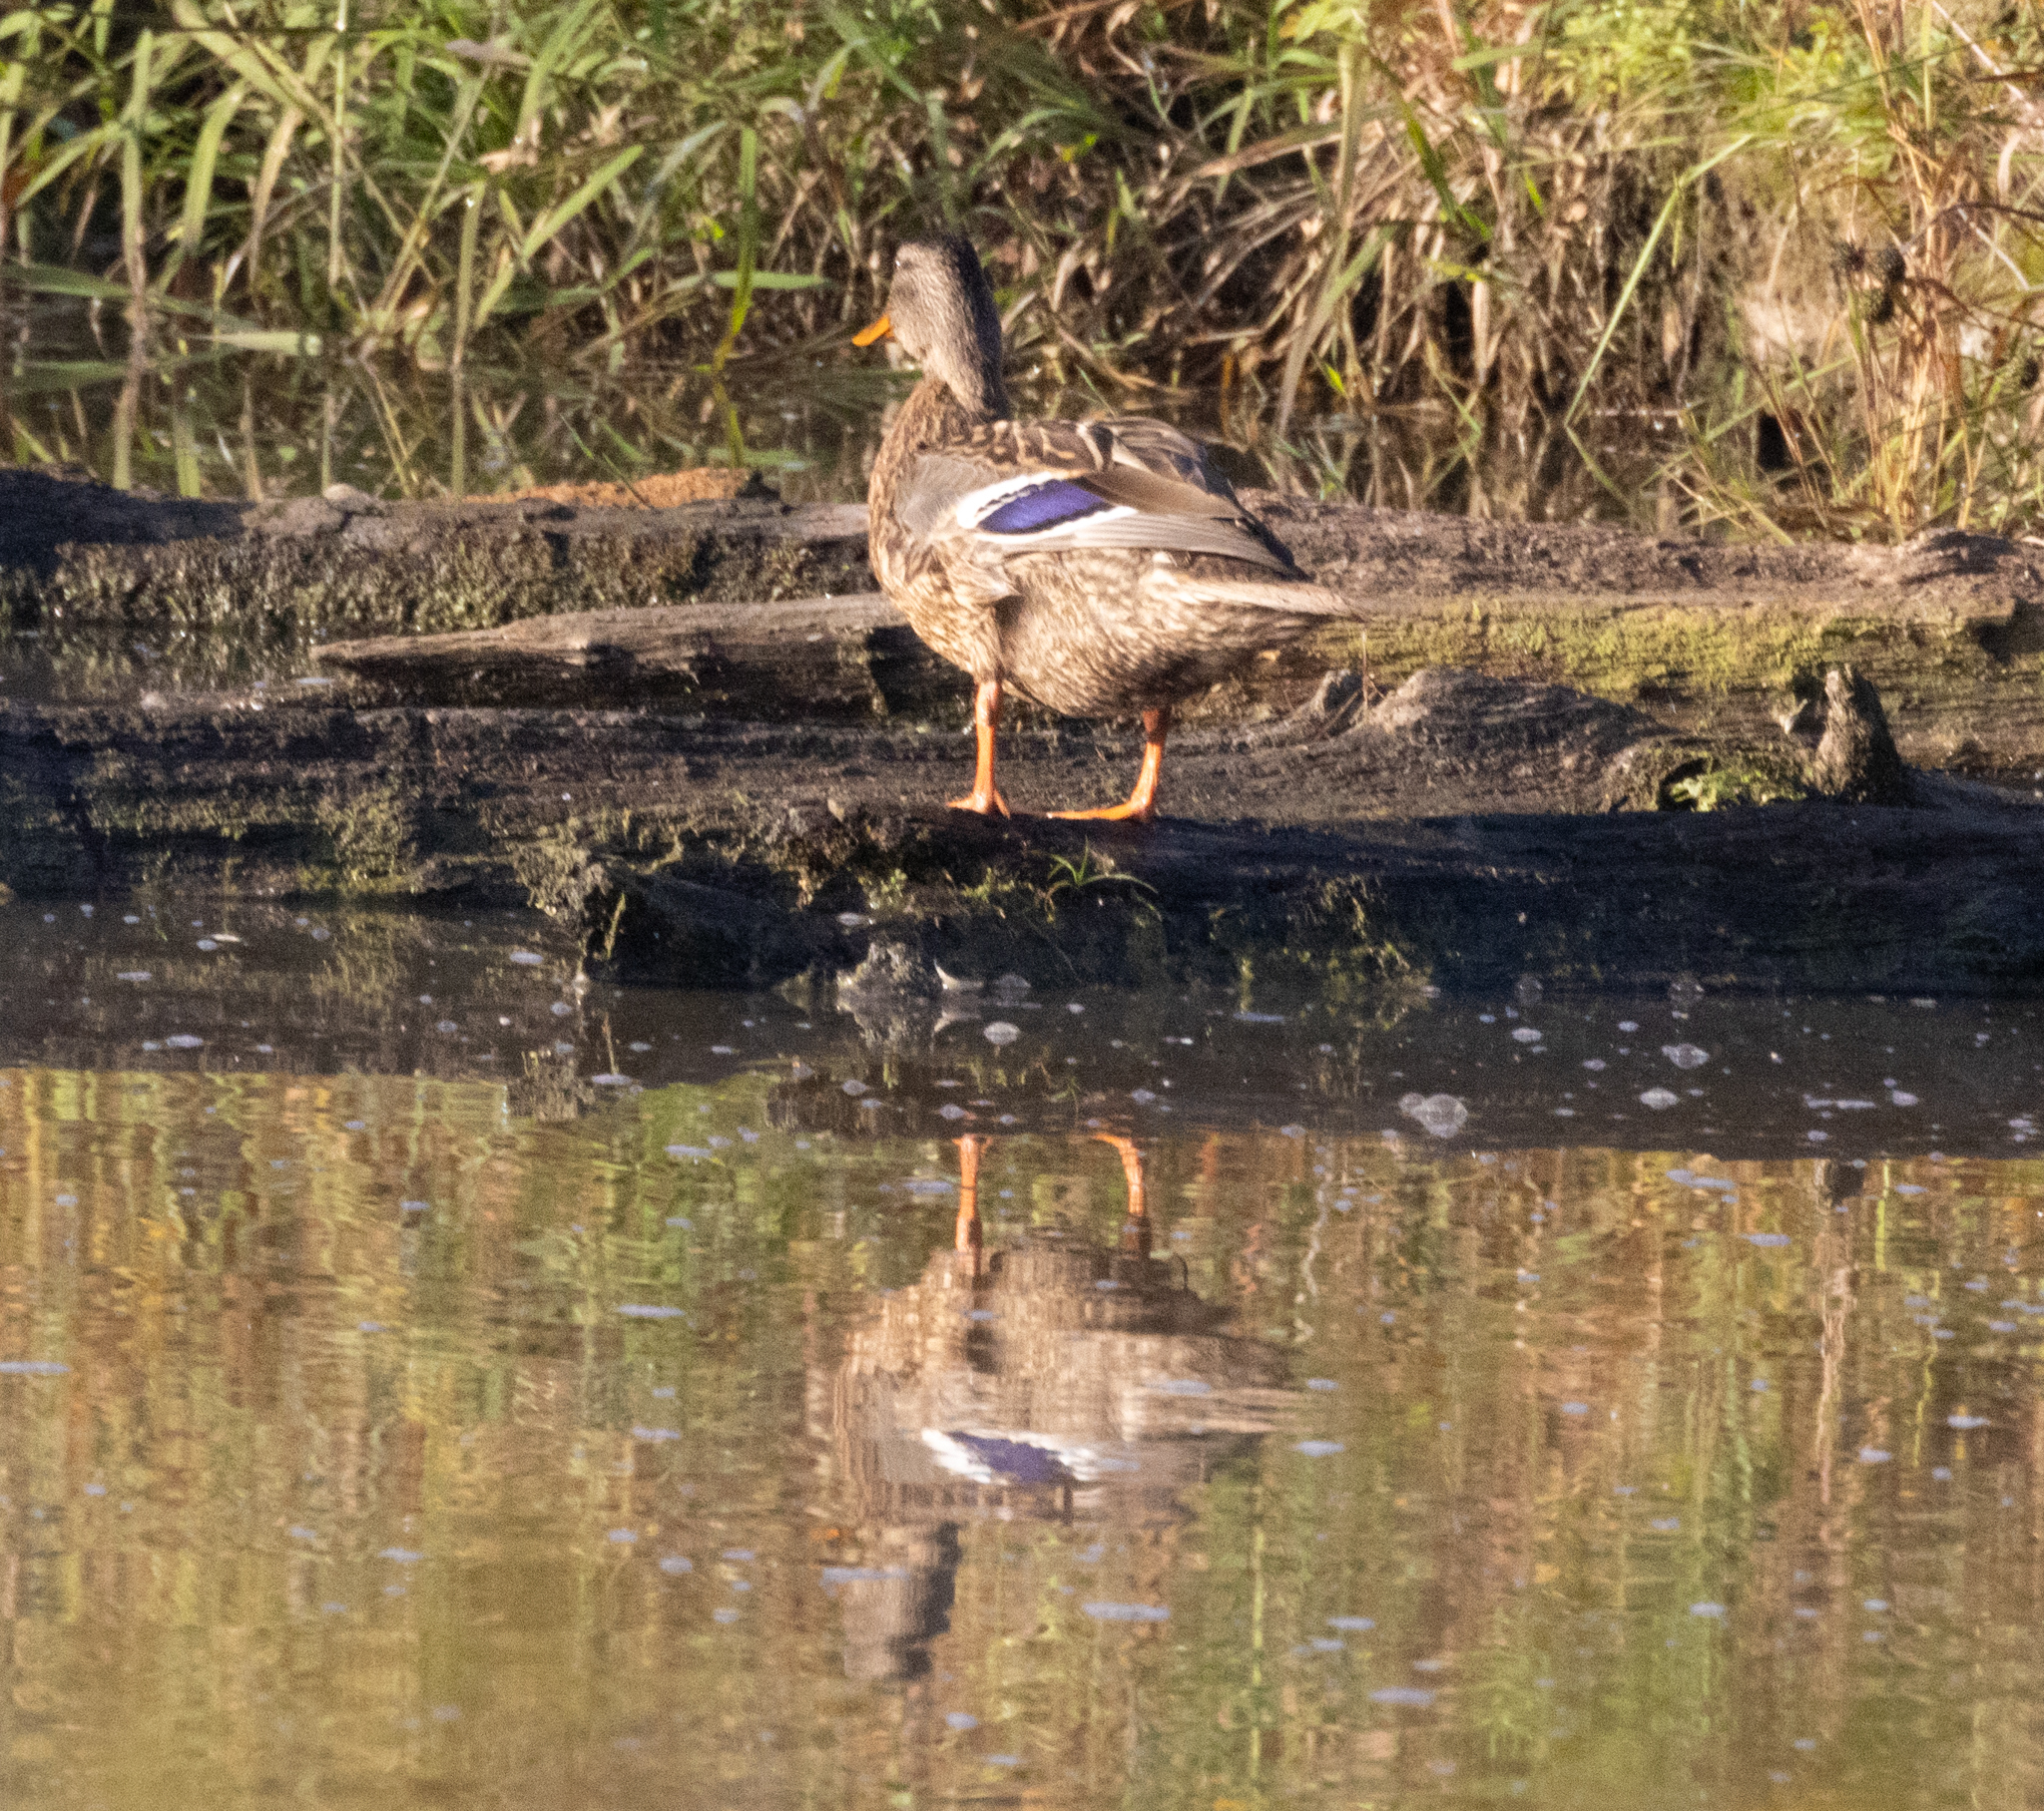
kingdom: Animalia
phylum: Chordata
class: Aves
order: Anseriformes
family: Anatidae
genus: Anas
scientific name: Anas platyrhynchos
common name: Mallard
